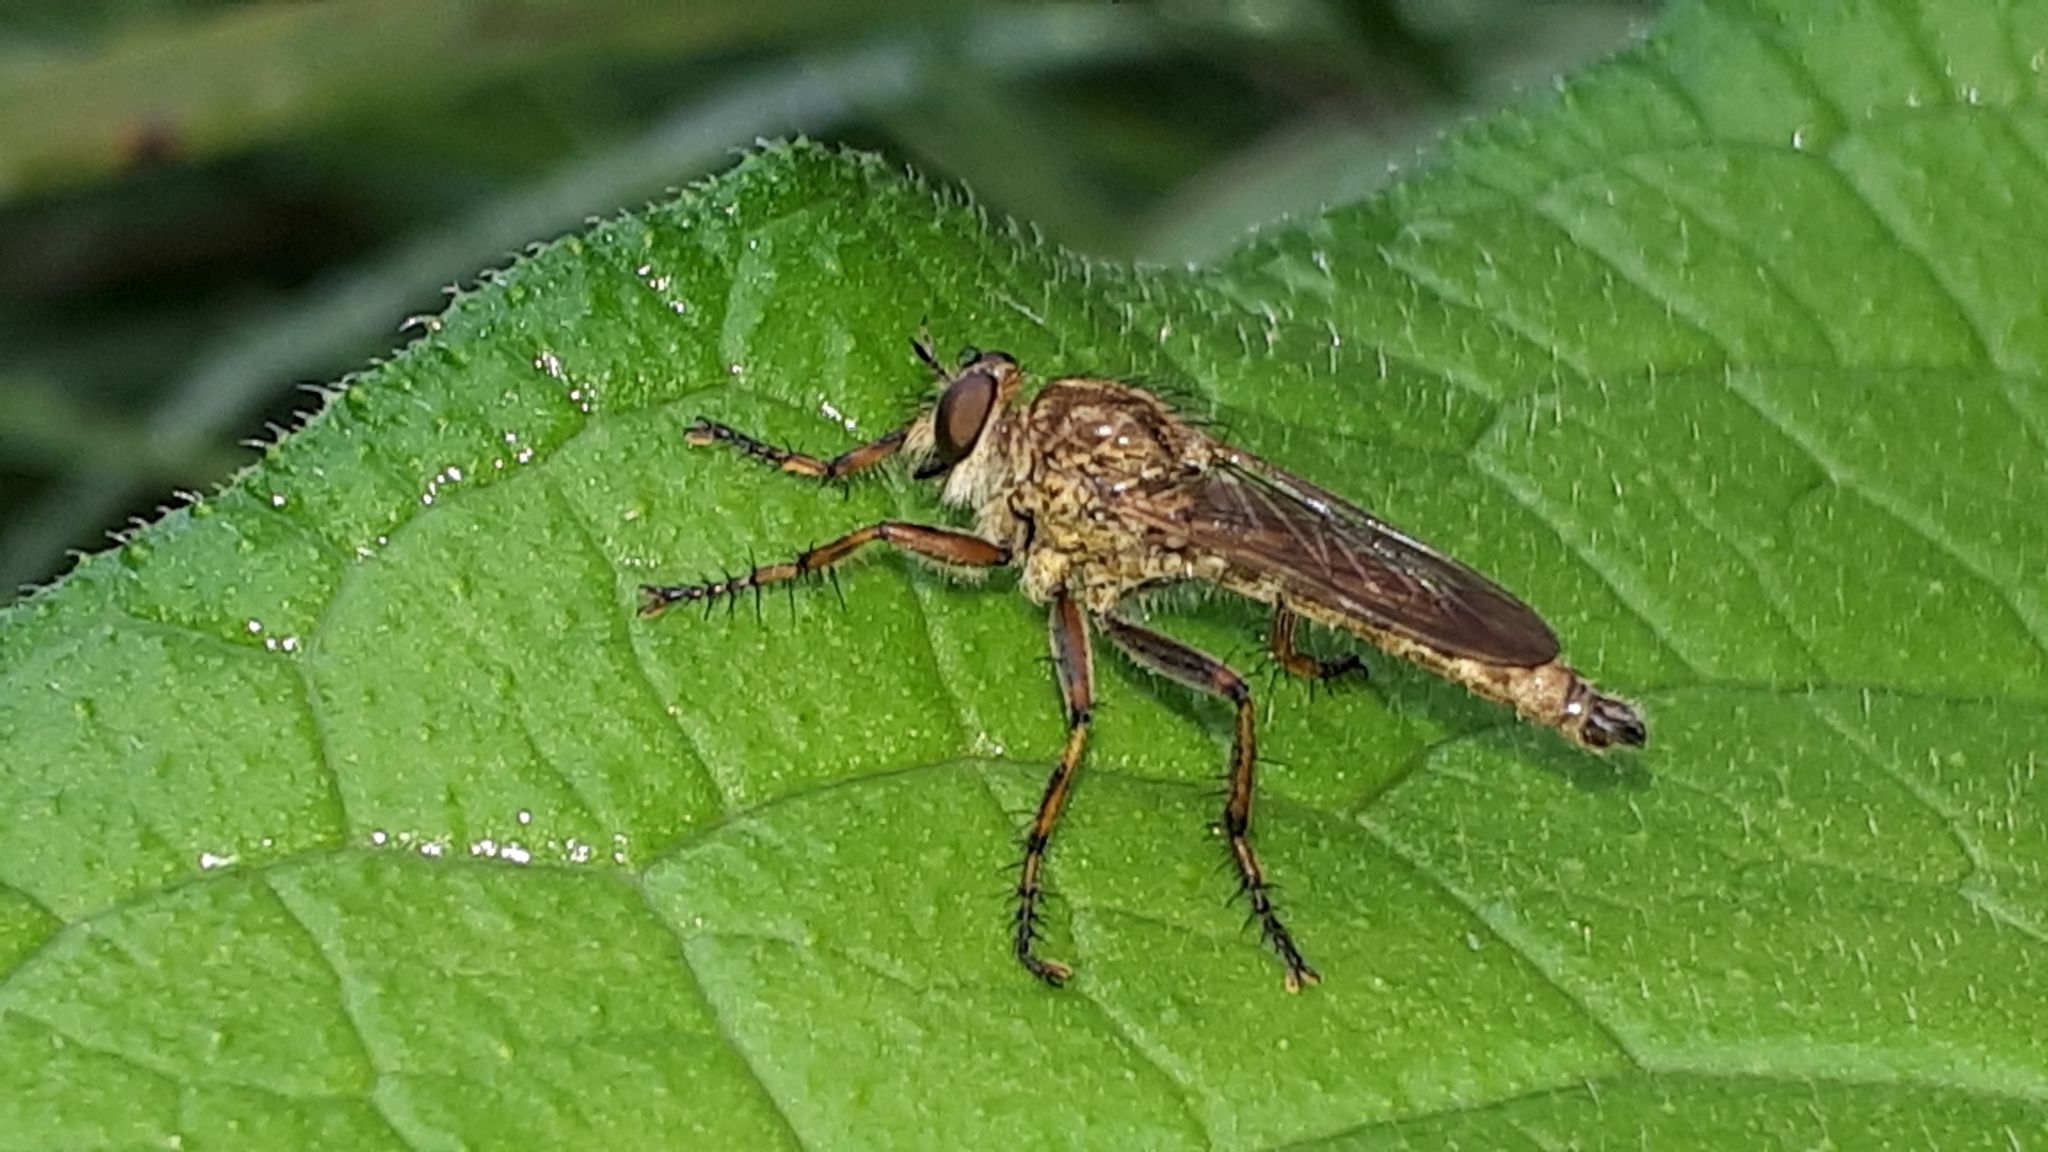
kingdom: Animalia
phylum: Arthropoda
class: Insecta
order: Diptera
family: Asilidae
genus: Epitriptus
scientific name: Epitriptus cingulatus
